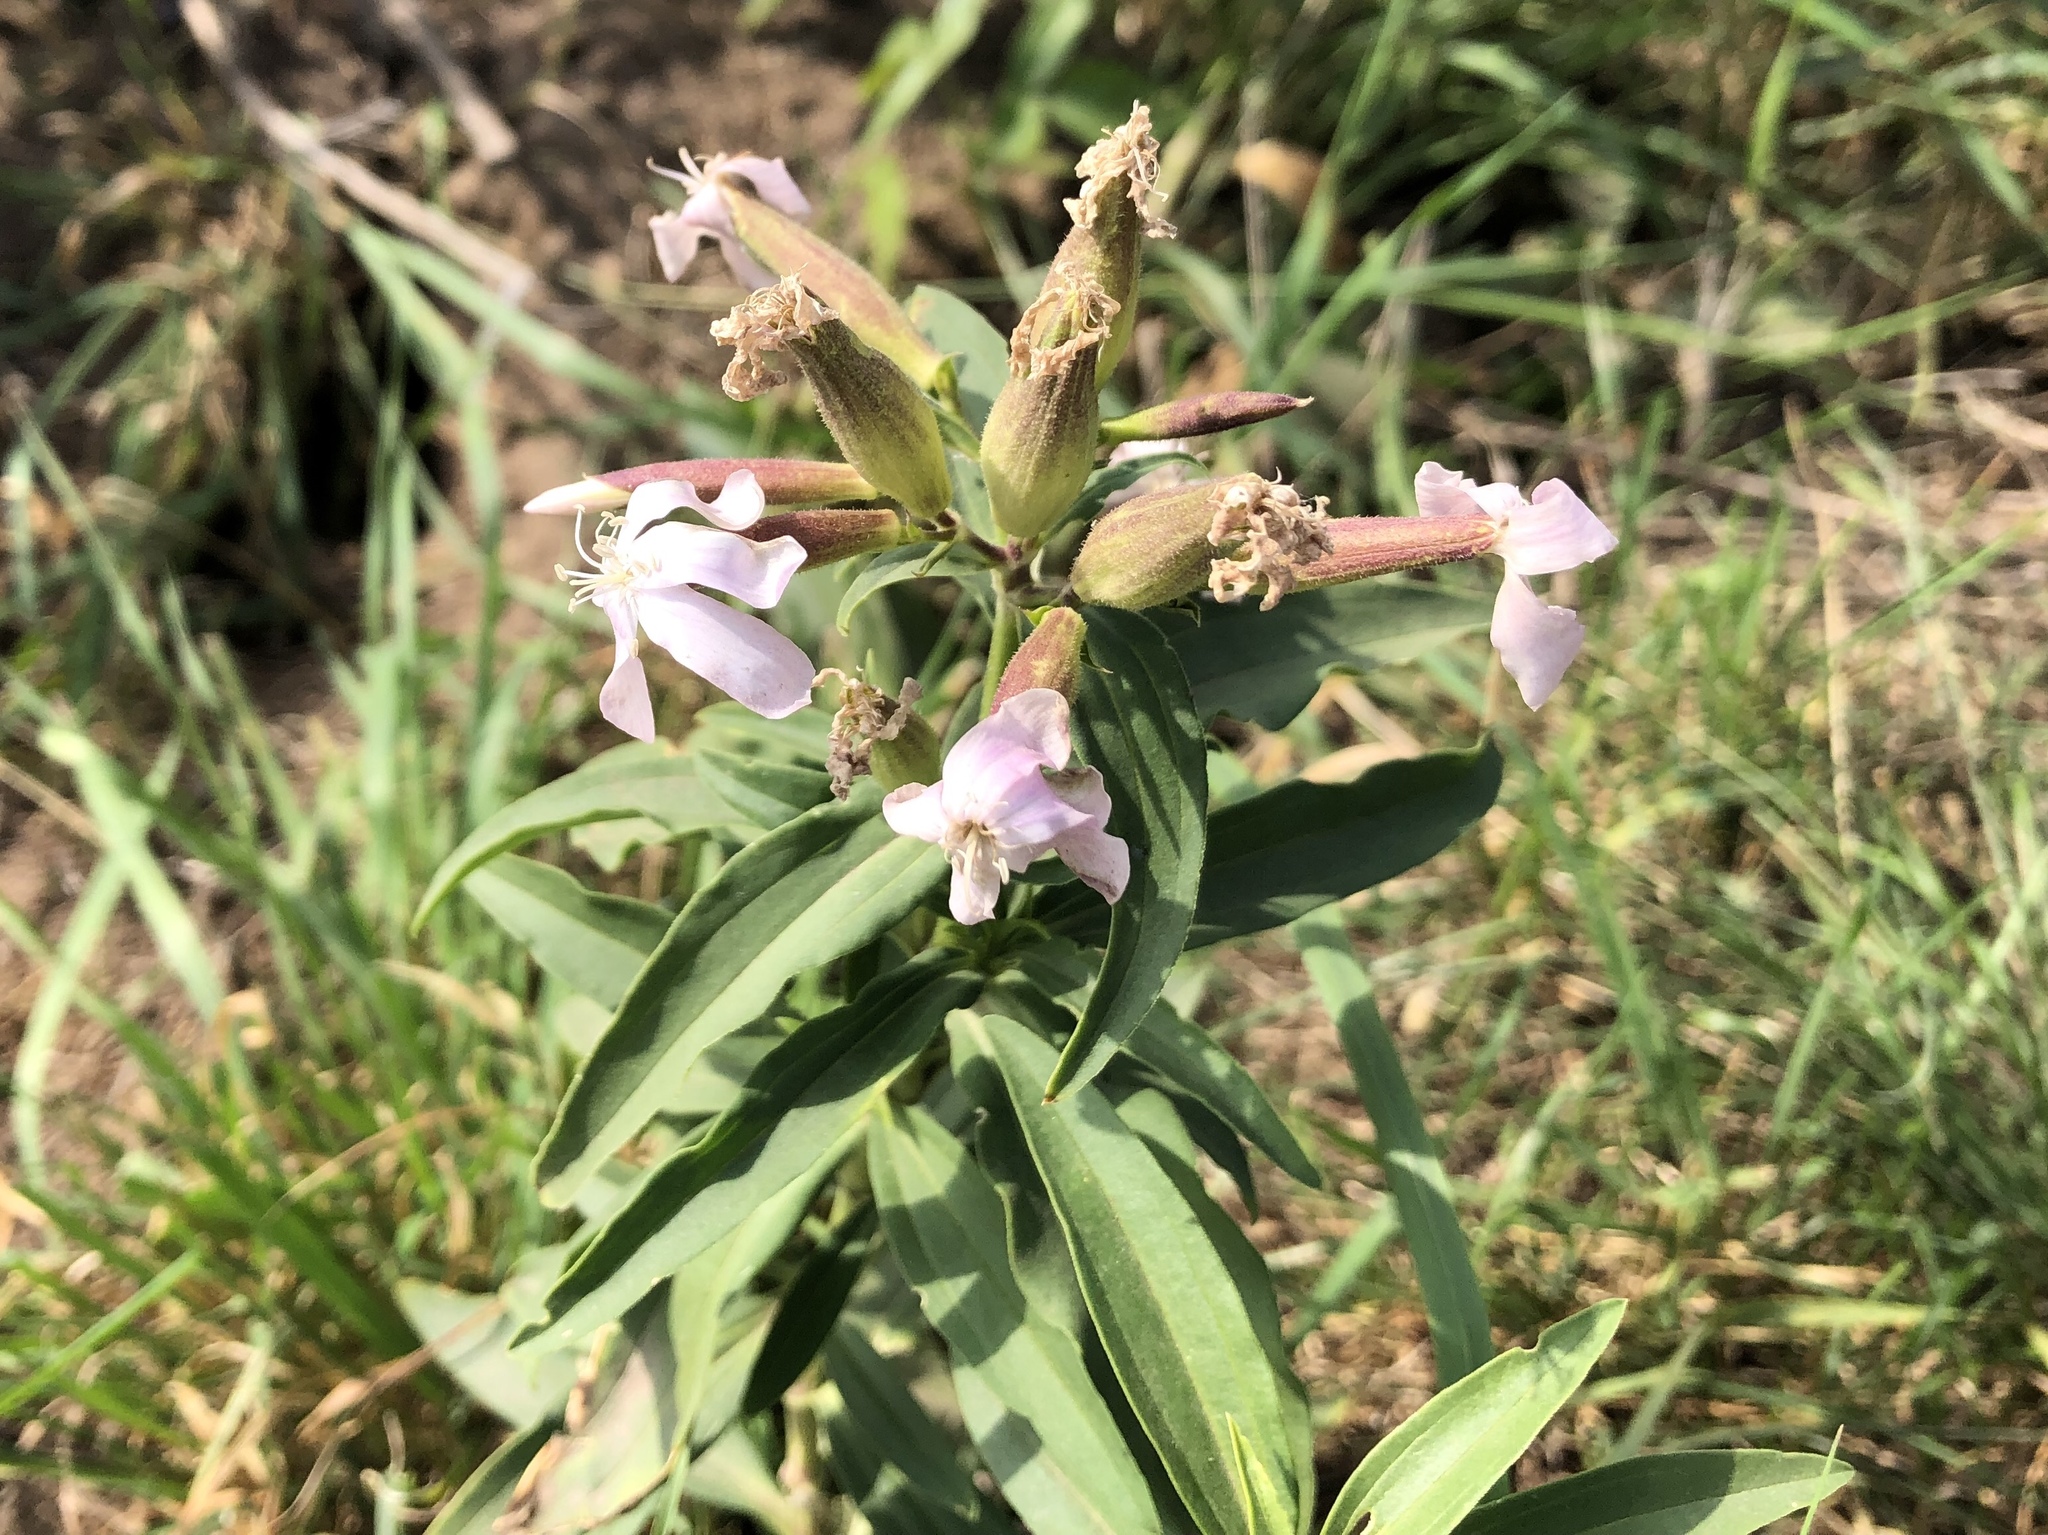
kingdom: Plantae
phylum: Tracheophyta
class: Magnoliopsida
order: Caryophyllales
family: Caryophyllaceae
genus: Saponaria
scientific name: Saponaria officinalis
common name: Soapwort
